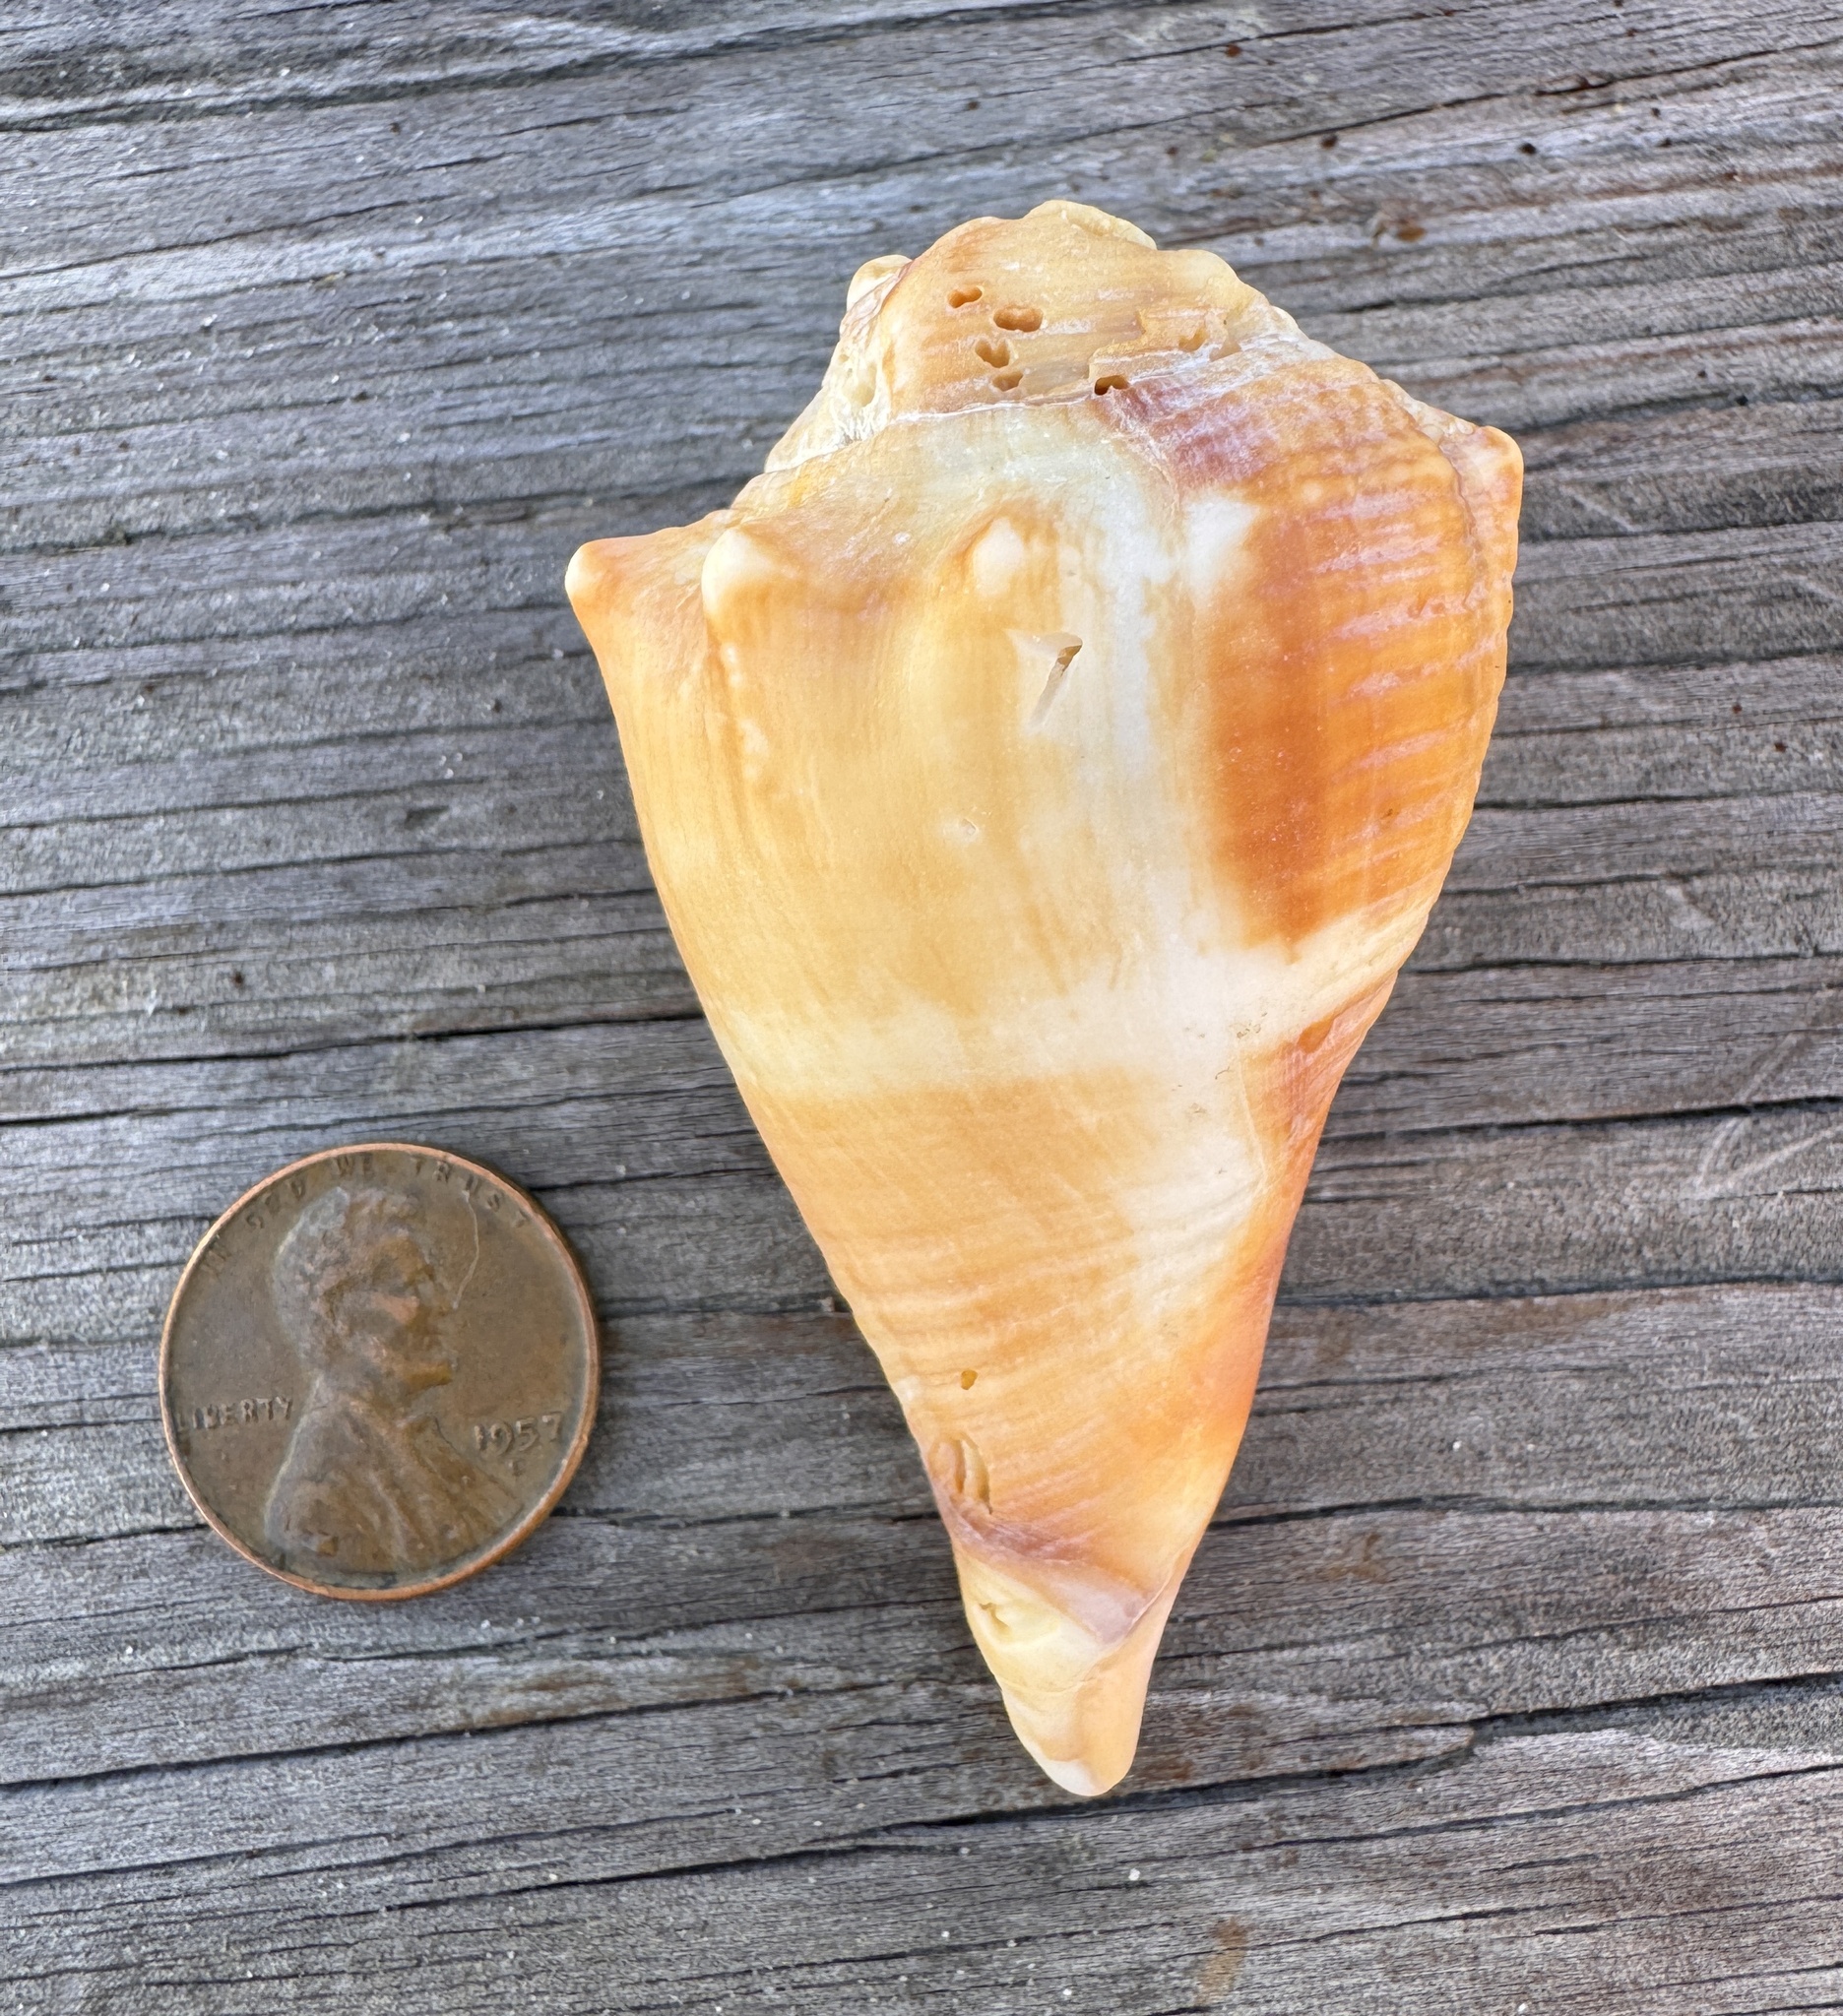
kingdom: Animalia
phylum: Mollusca
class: Gastropoda
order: Littorinimorpha
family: Strombidae
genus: Strombus
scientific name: Strombus alatus
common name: Florida fighting conch
